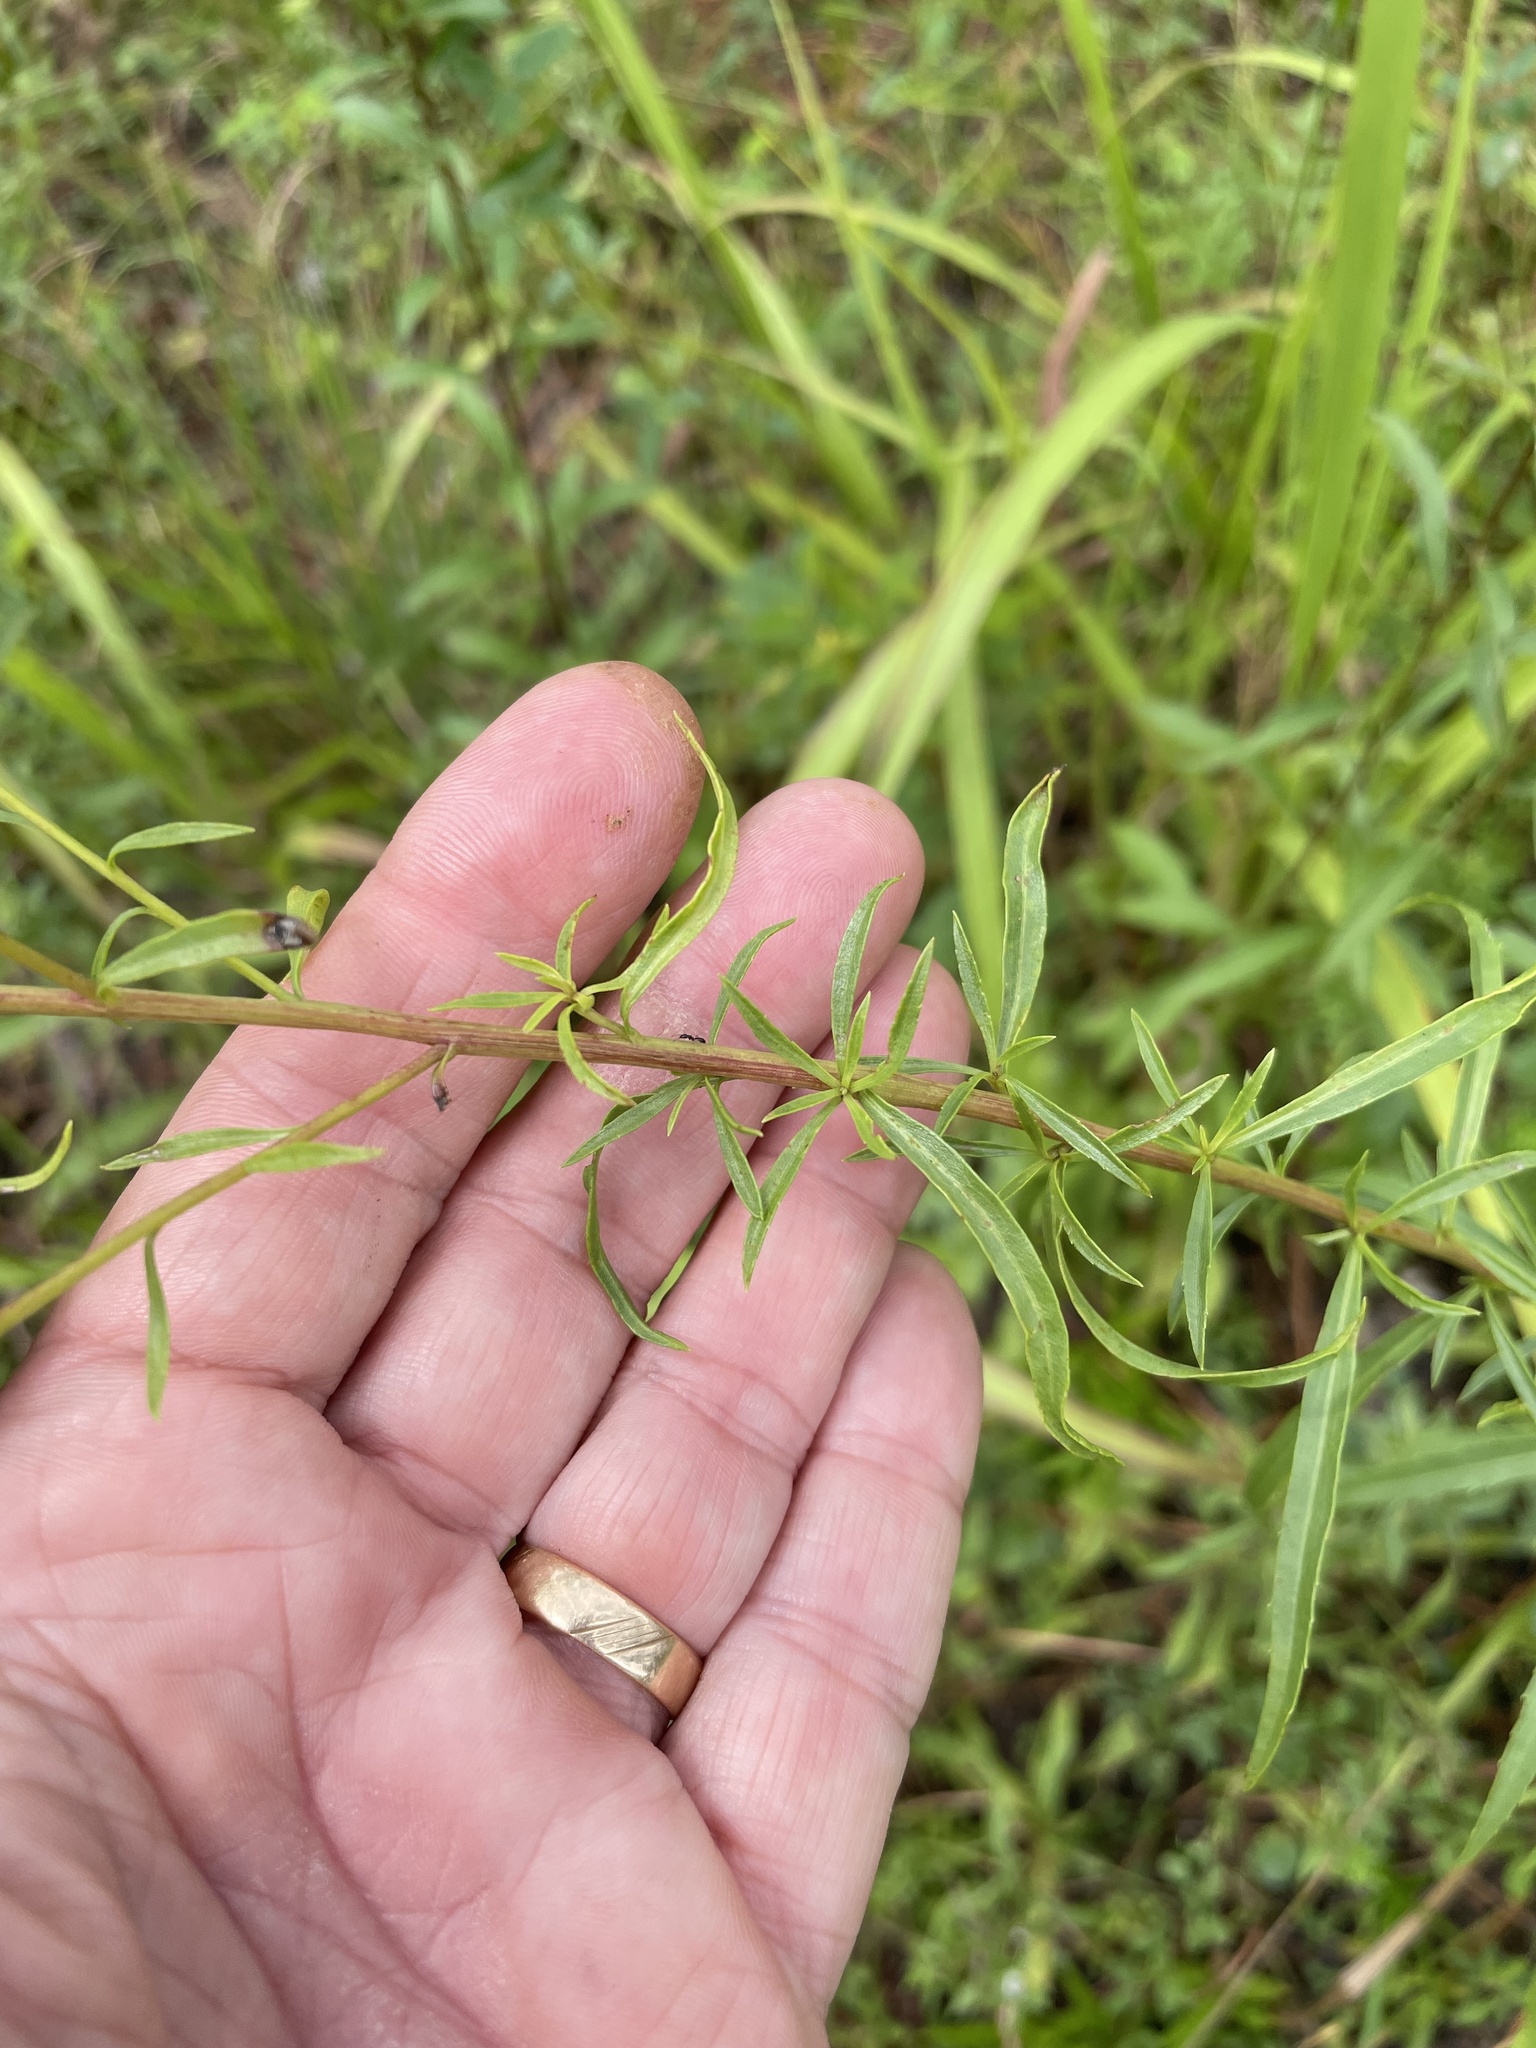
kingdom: Plantae
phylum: Tracheophyta
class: Magnoliopsida
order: Asterales
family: Asteraceae
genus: Solidago
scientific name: Solidago pinetorum
